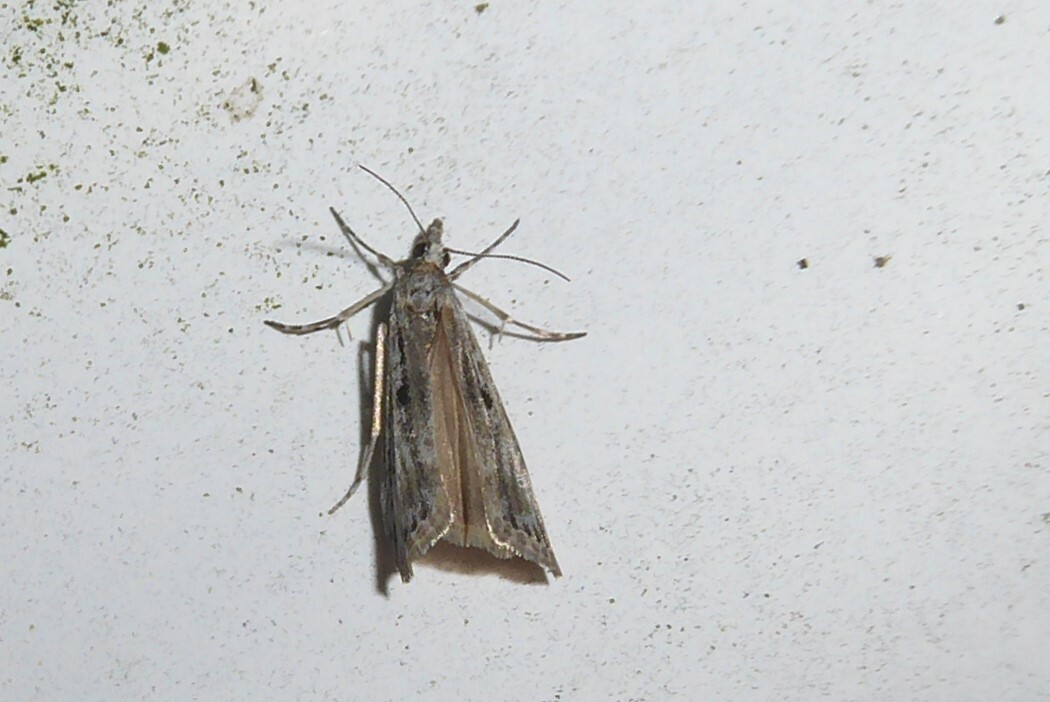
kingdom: Animalia
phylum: Arthropoda
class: Insecta
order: Lepidoptera
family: Crambidae
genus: Eudonia
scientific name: Eudonia leptalea
